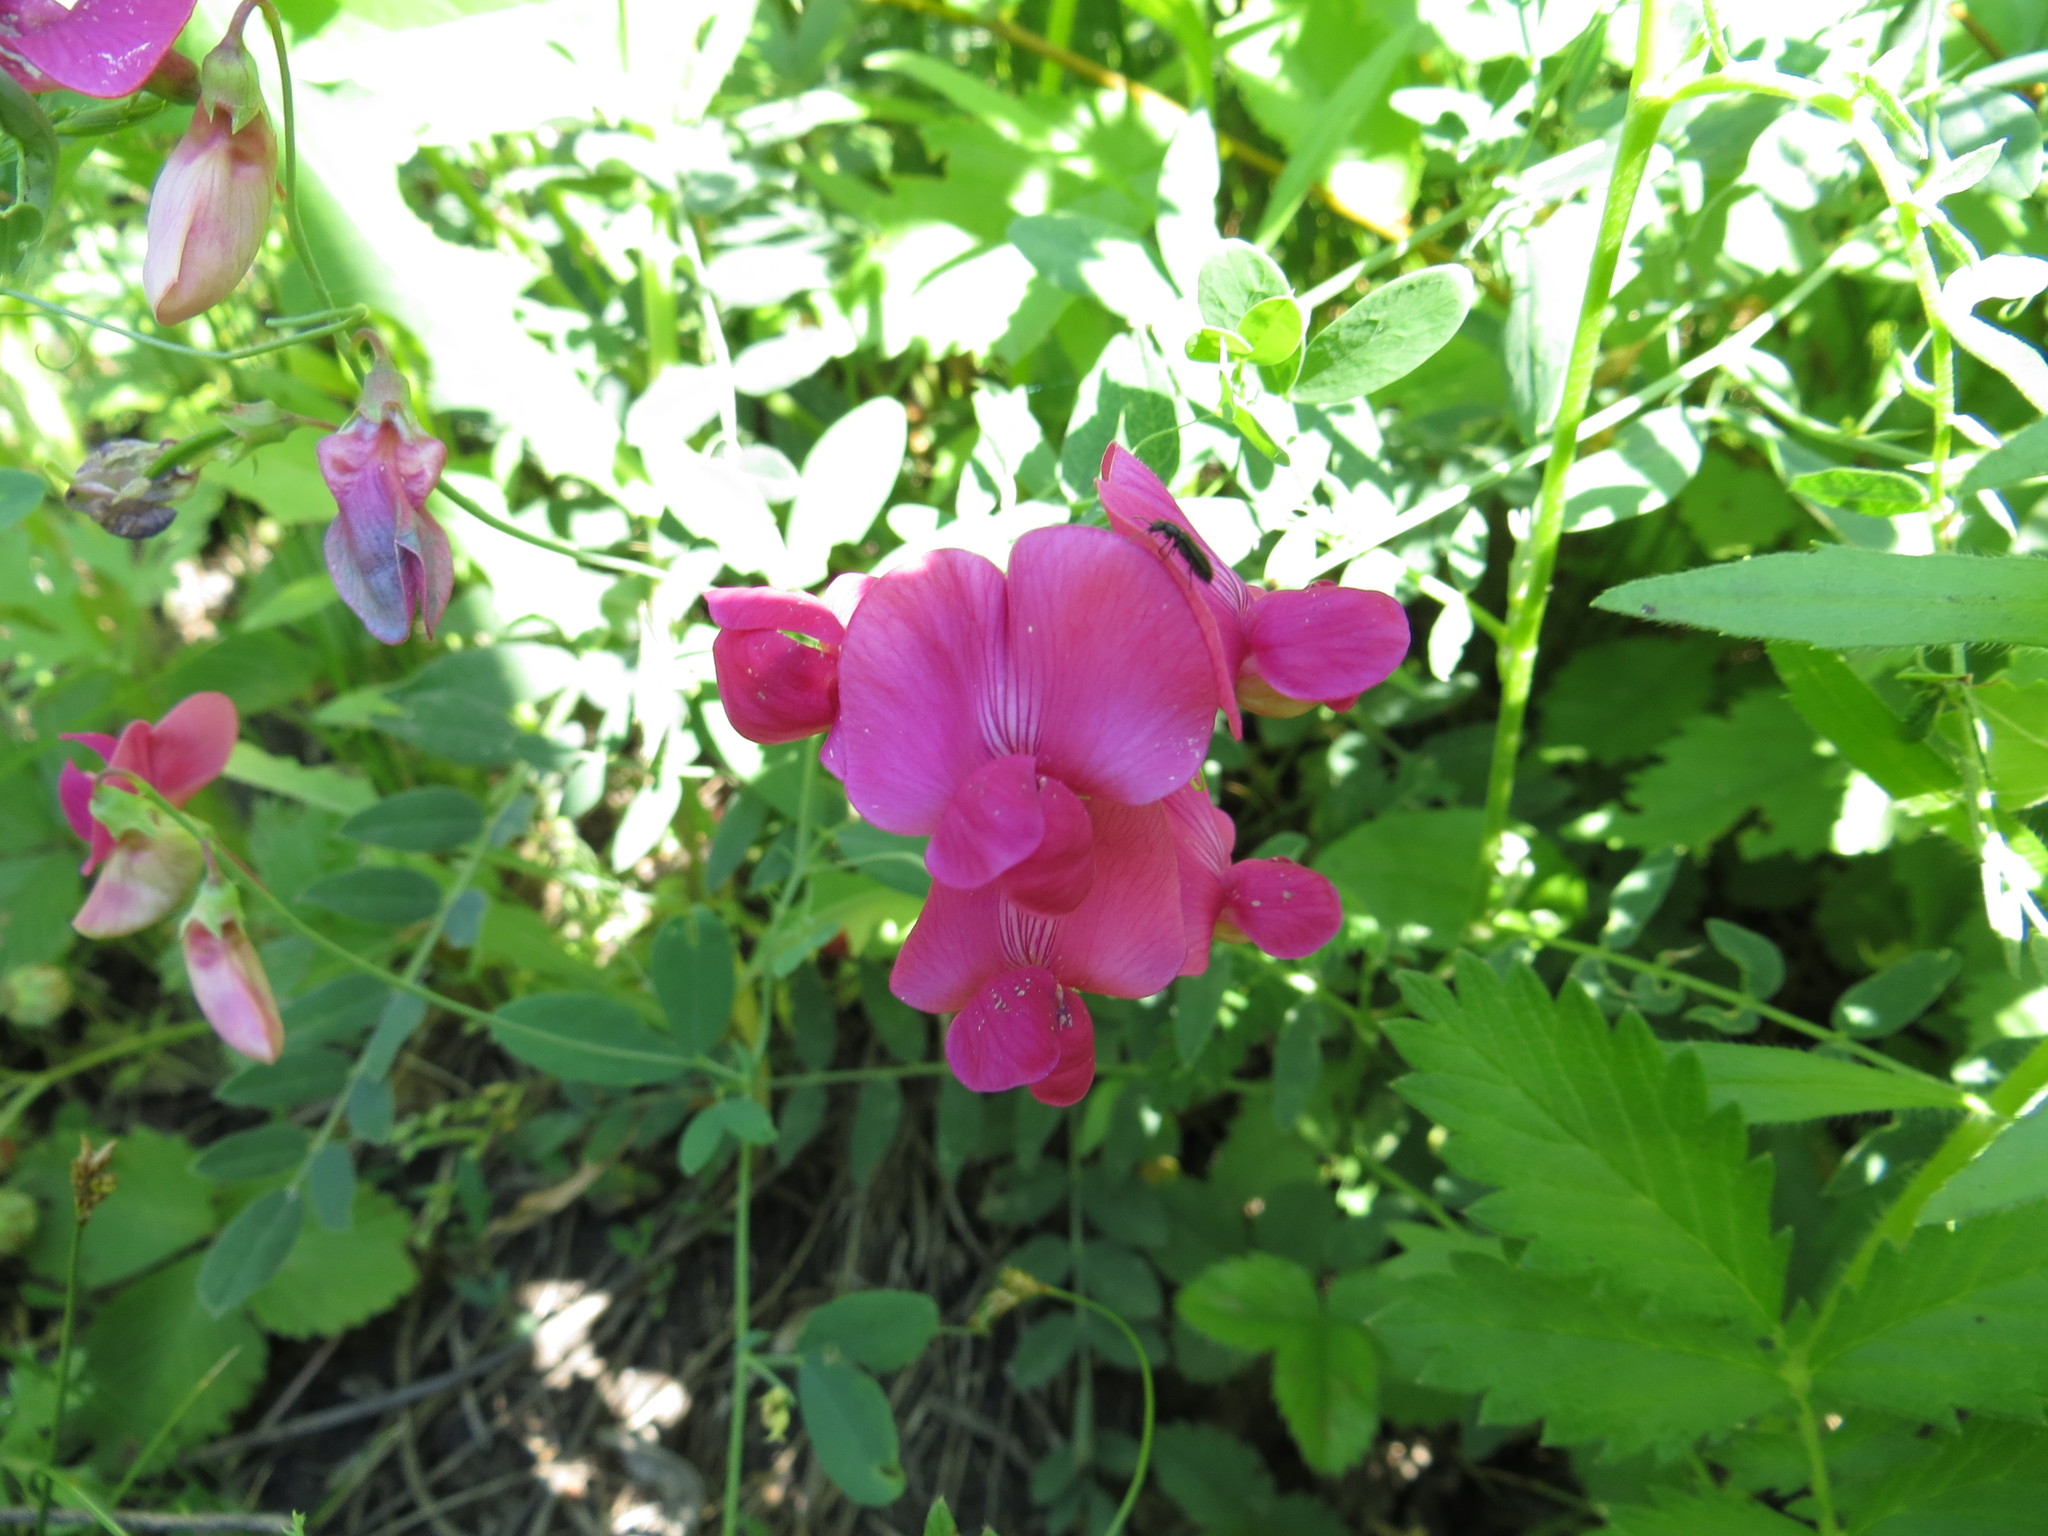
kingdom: Plantae
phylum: Tracheophyta
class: Magnoliopsida
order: Fabales
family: Fabaceae
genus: Lathyrus
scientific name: Lathyrus tuberosus
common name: Tuberous pea
